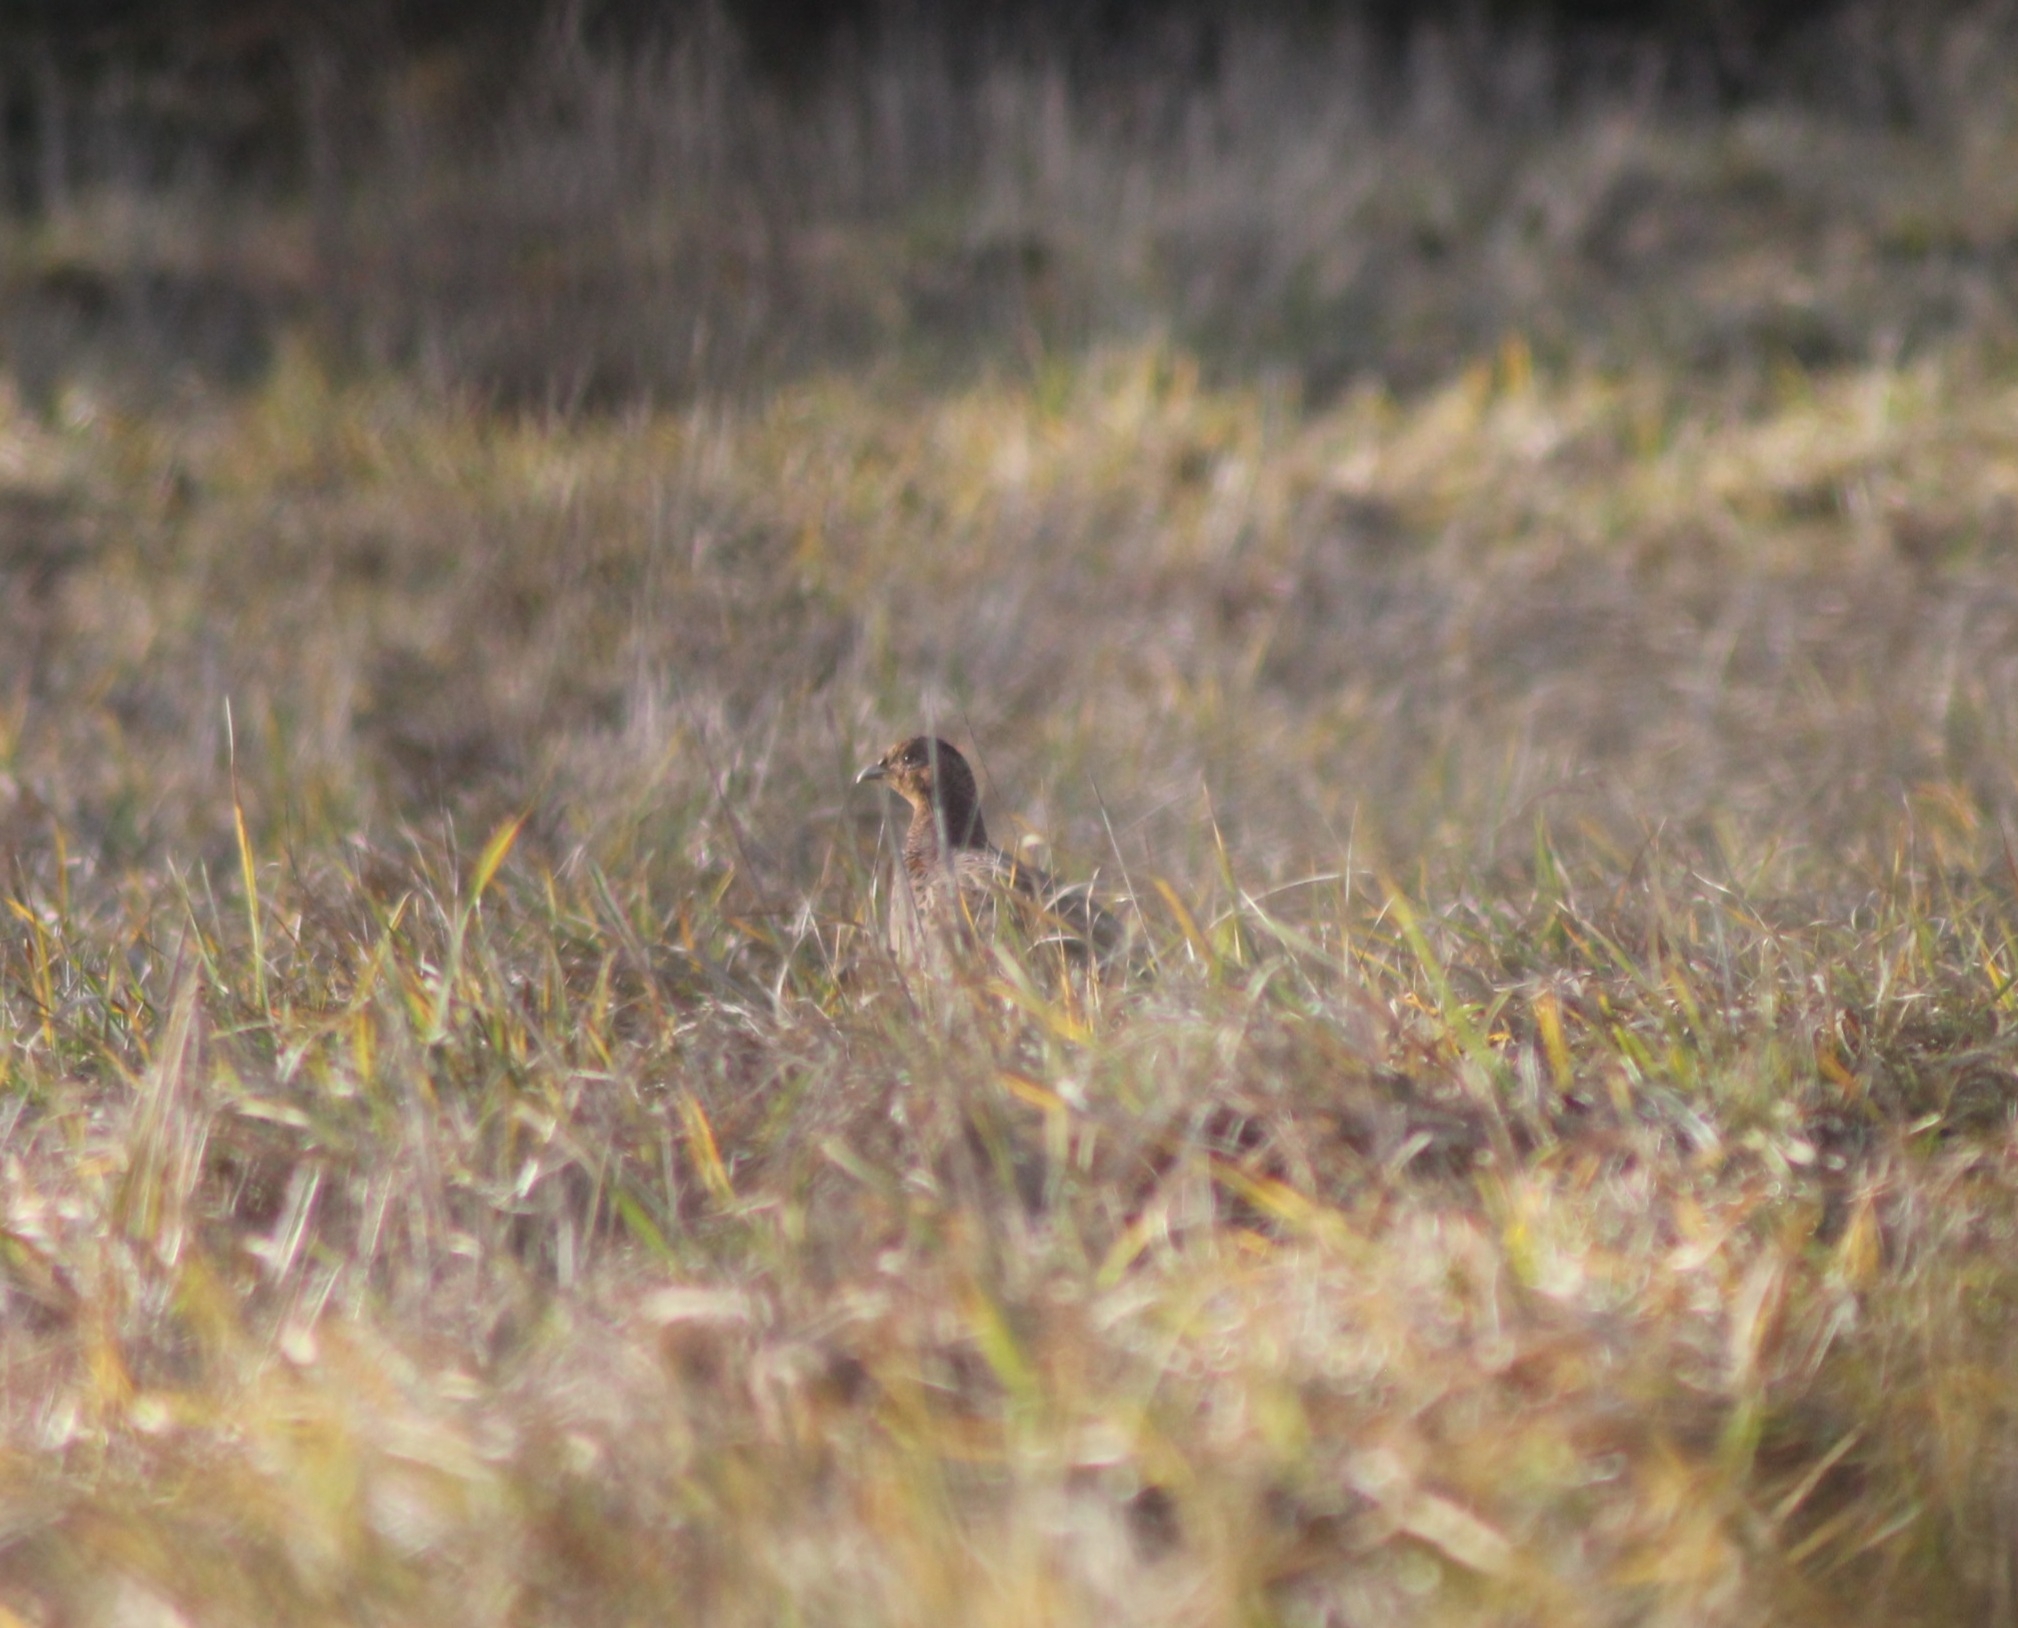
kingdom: Animalia
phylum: Chordata
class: Aves
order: Galliformes
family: Phasianidae
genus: Phasianus
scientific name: Phasianus colchicus
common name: Common pheasant
